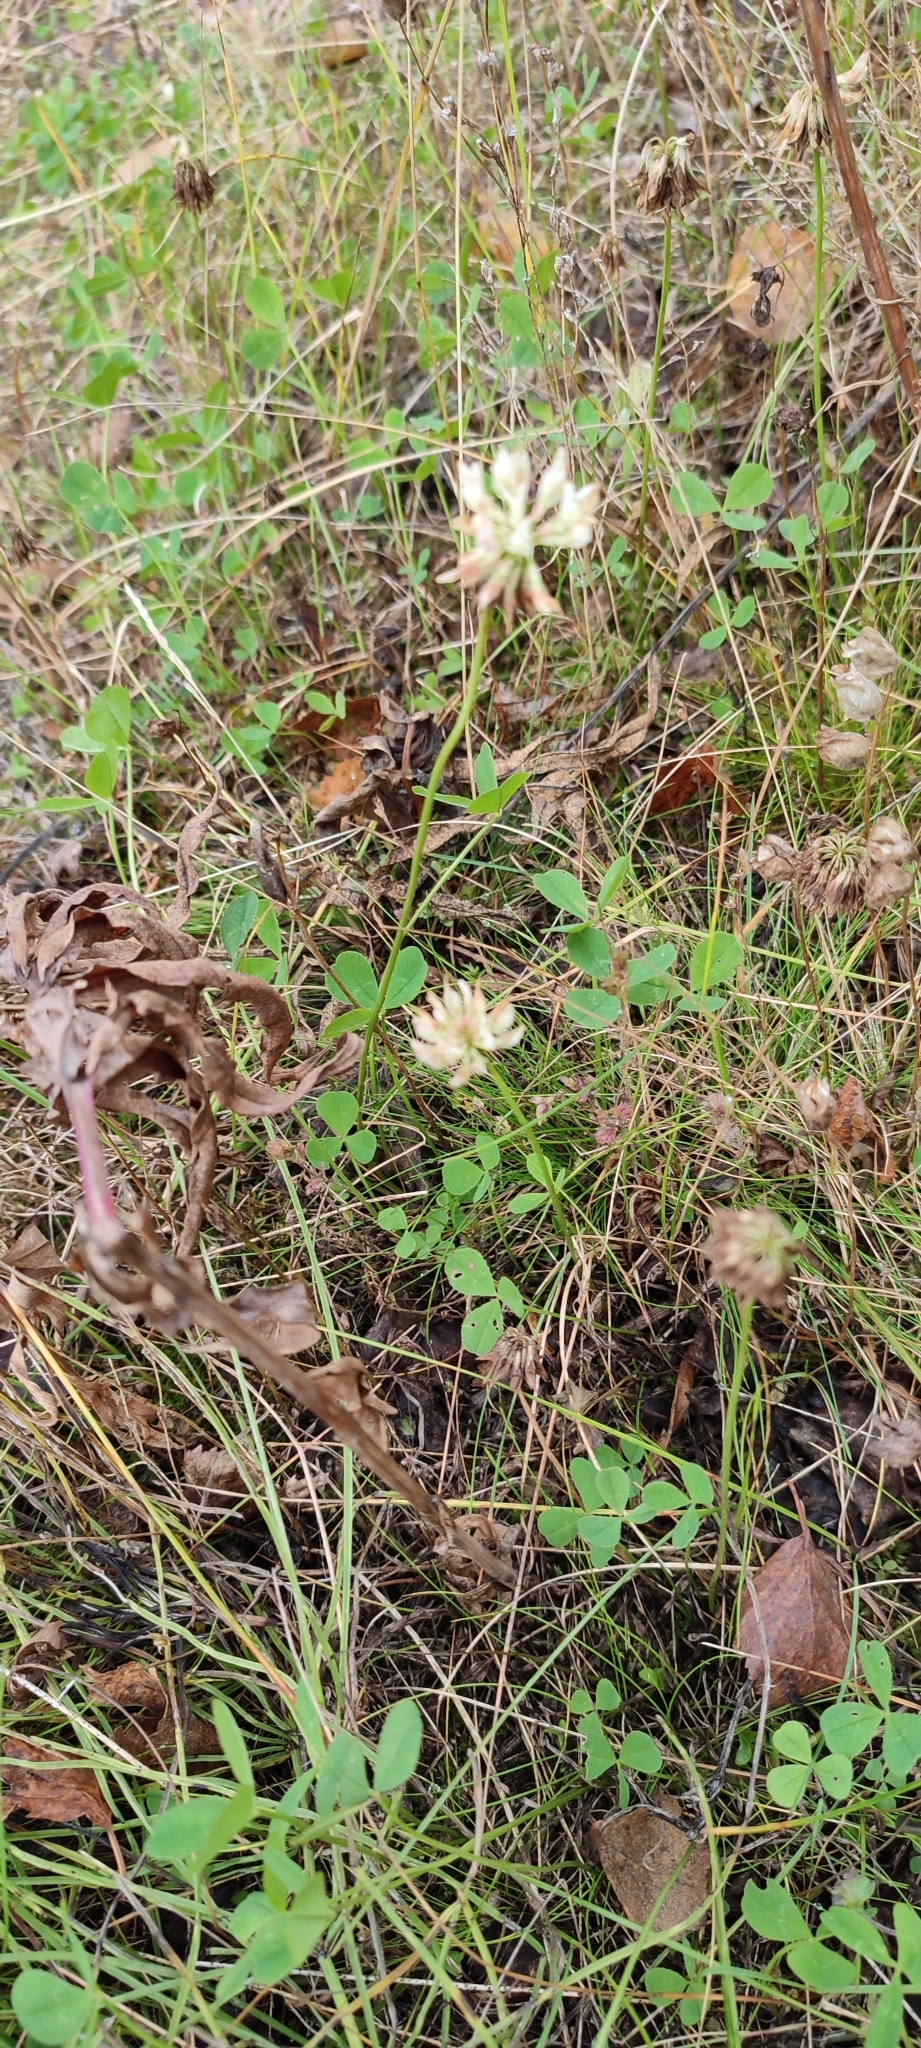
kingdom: Plantae
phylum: Tracheophyta
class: Magnoliopsida
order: Fabales
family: Fabaceae
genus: Trifolium
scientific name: Trifolium repens
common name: White clover
